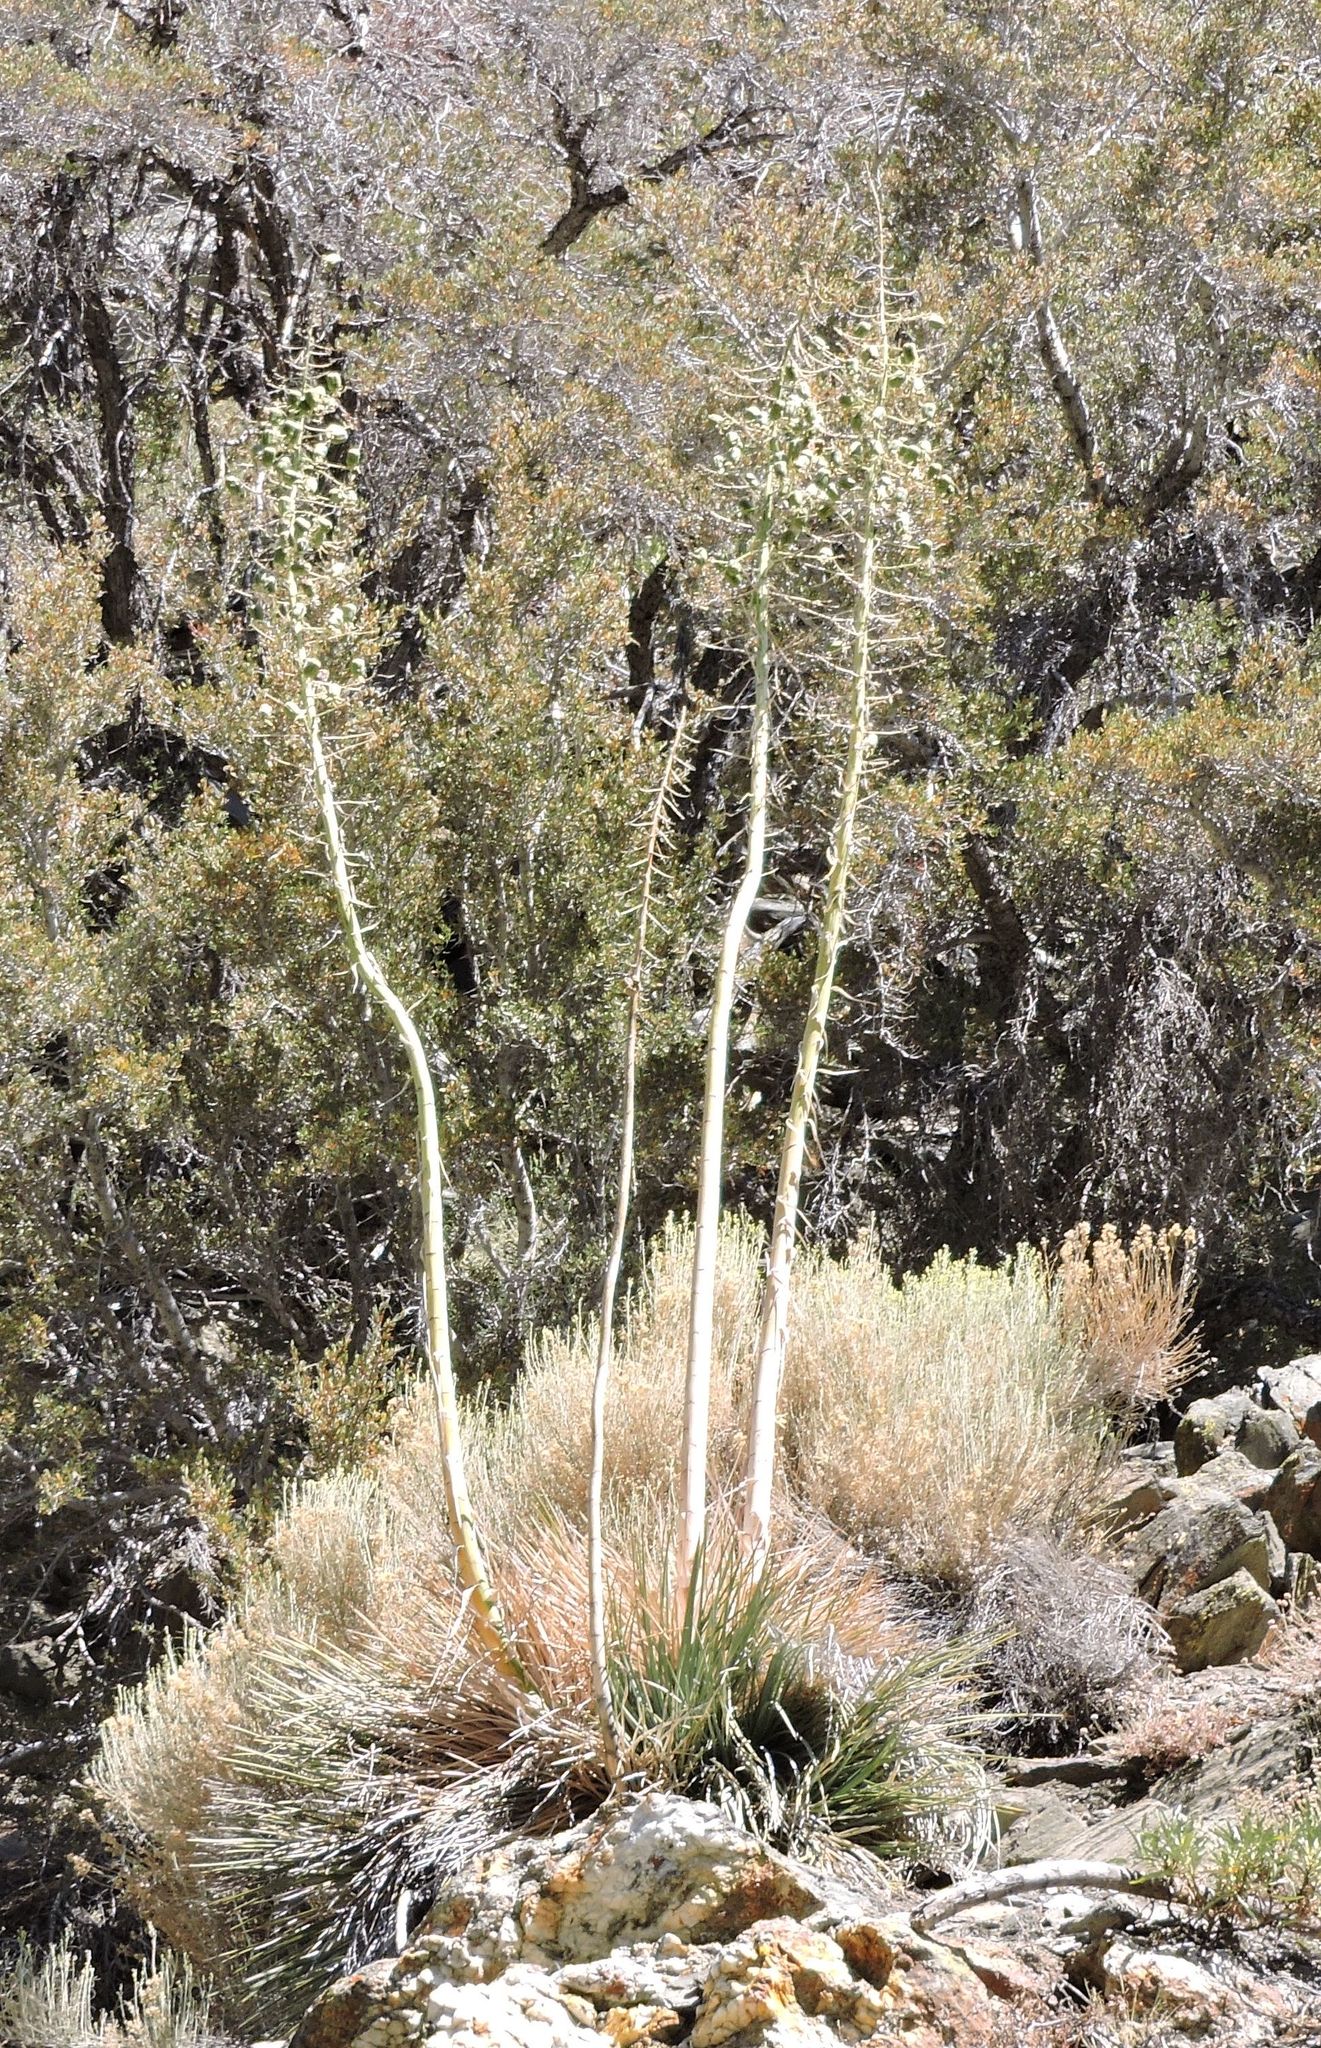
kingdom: Plantae
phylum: Tracheophyta
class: Liliopsida
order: Asparagales
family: Asparagaceae
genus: Hesperoyucca
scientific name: Hesperoyucca whipplei
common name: Our lord's-candle
